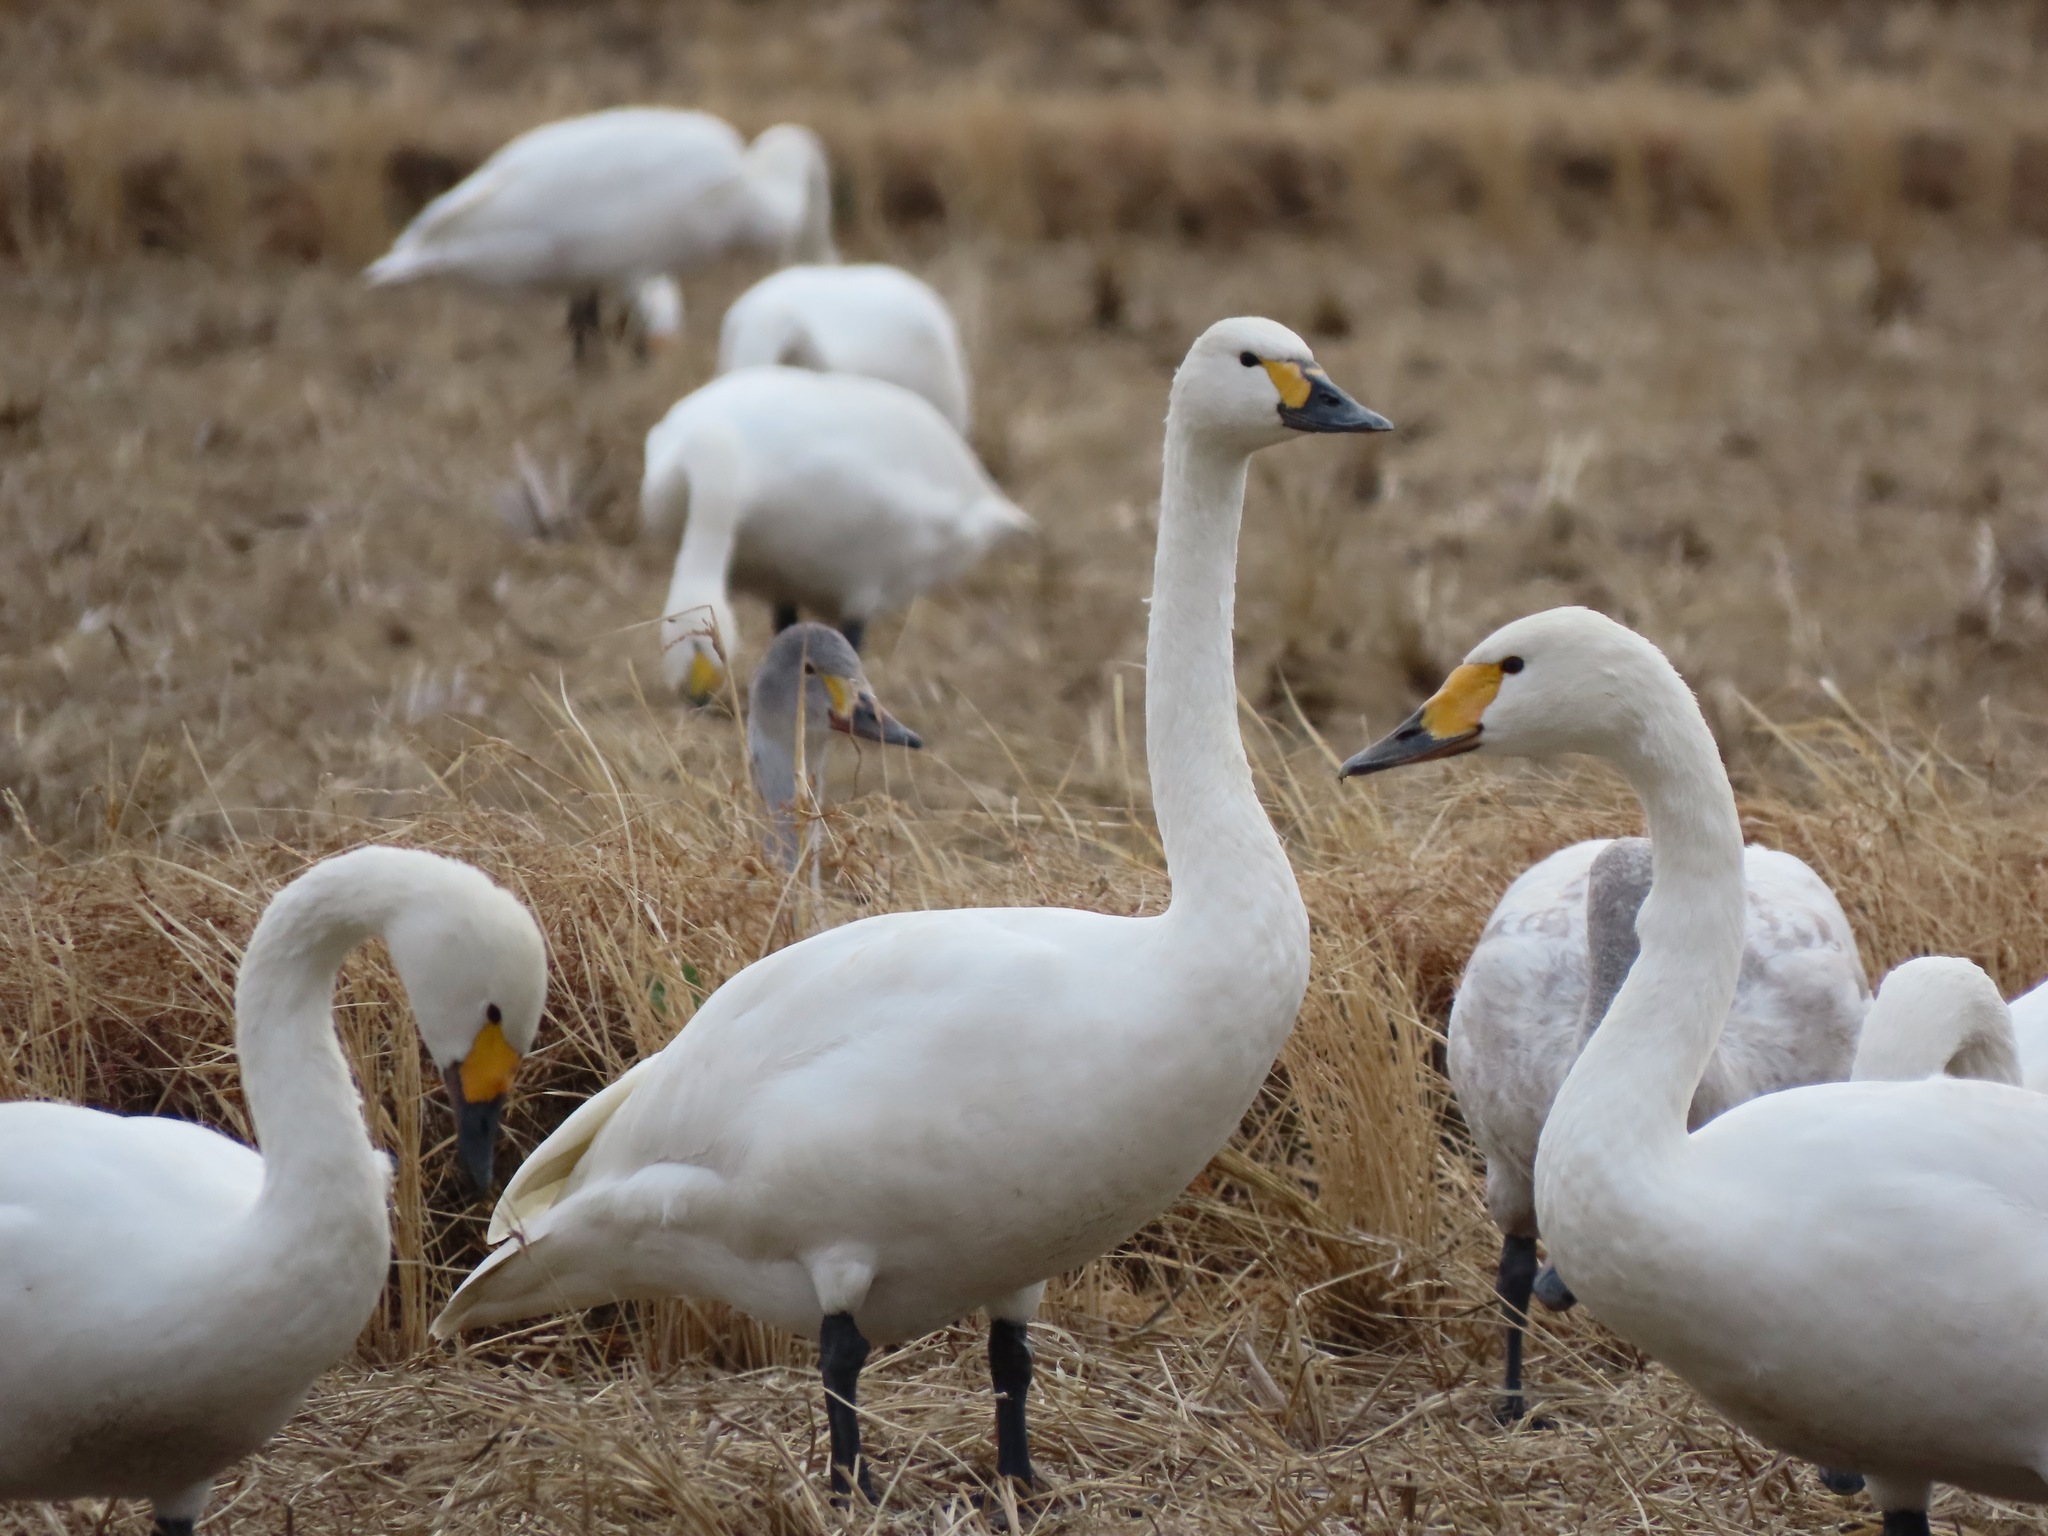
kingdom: Animalia
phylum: Chordata
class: Aves
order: Anseriformes
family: Anatidae
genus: Cygnus
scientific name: Cygnus columbianus
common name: Tundra swan
